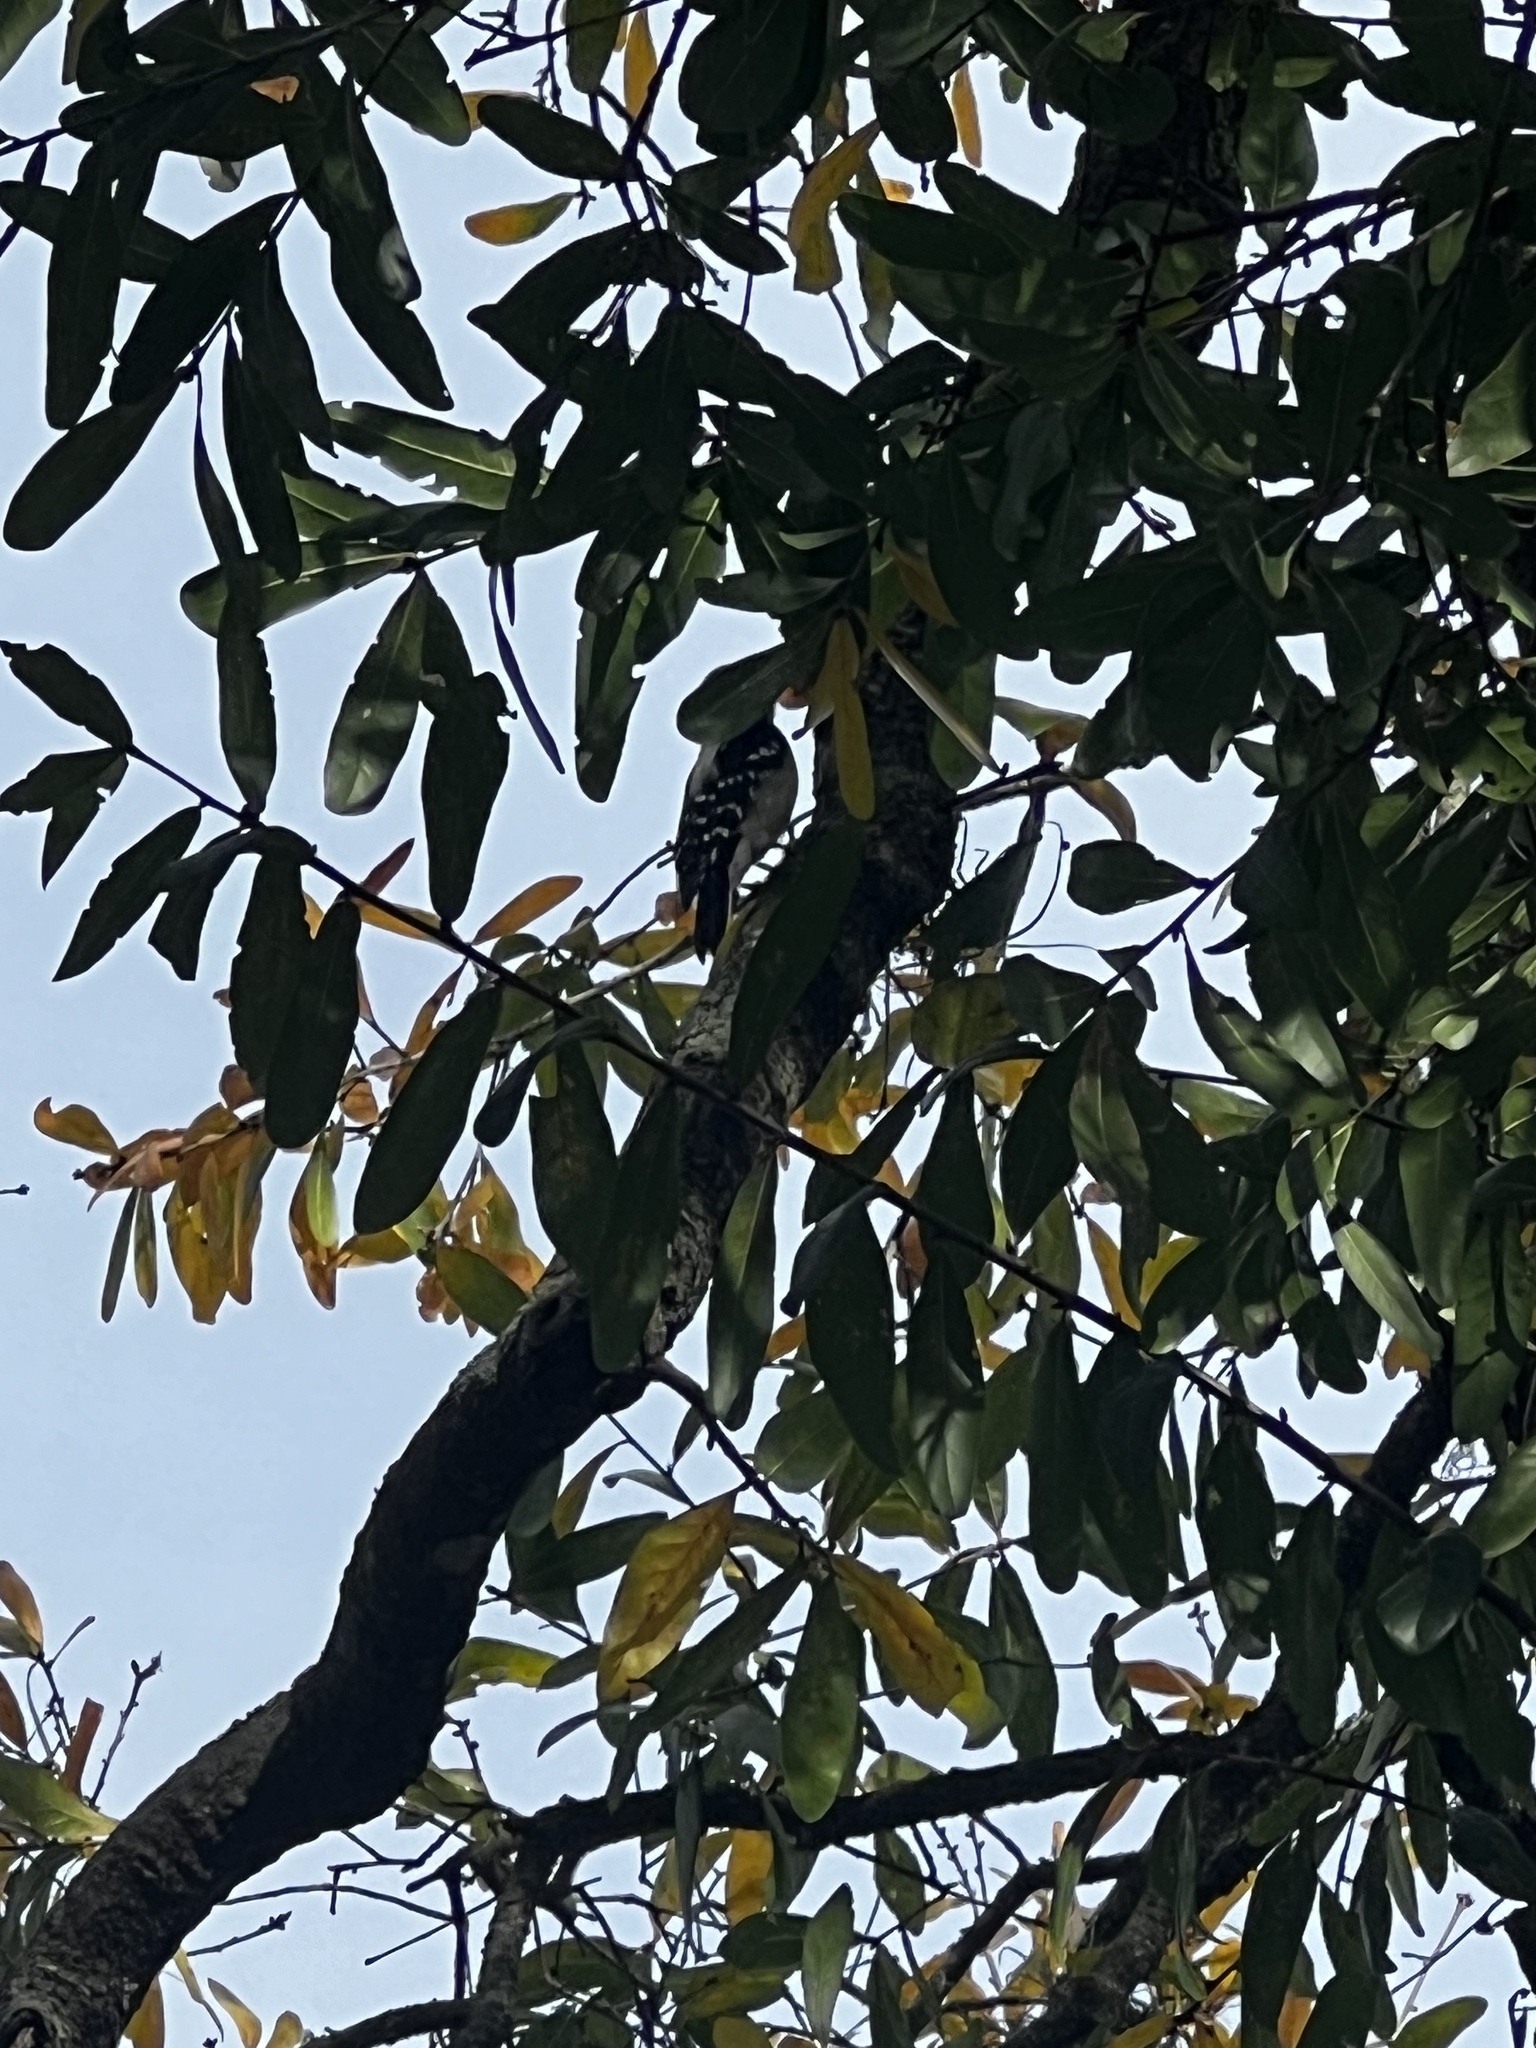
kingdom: Animalia
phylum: Chordata
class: Aves
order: Piciformes
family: Picidae
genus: Dryobates
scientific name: Dryobates pubescens
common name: Downy woodpecker
